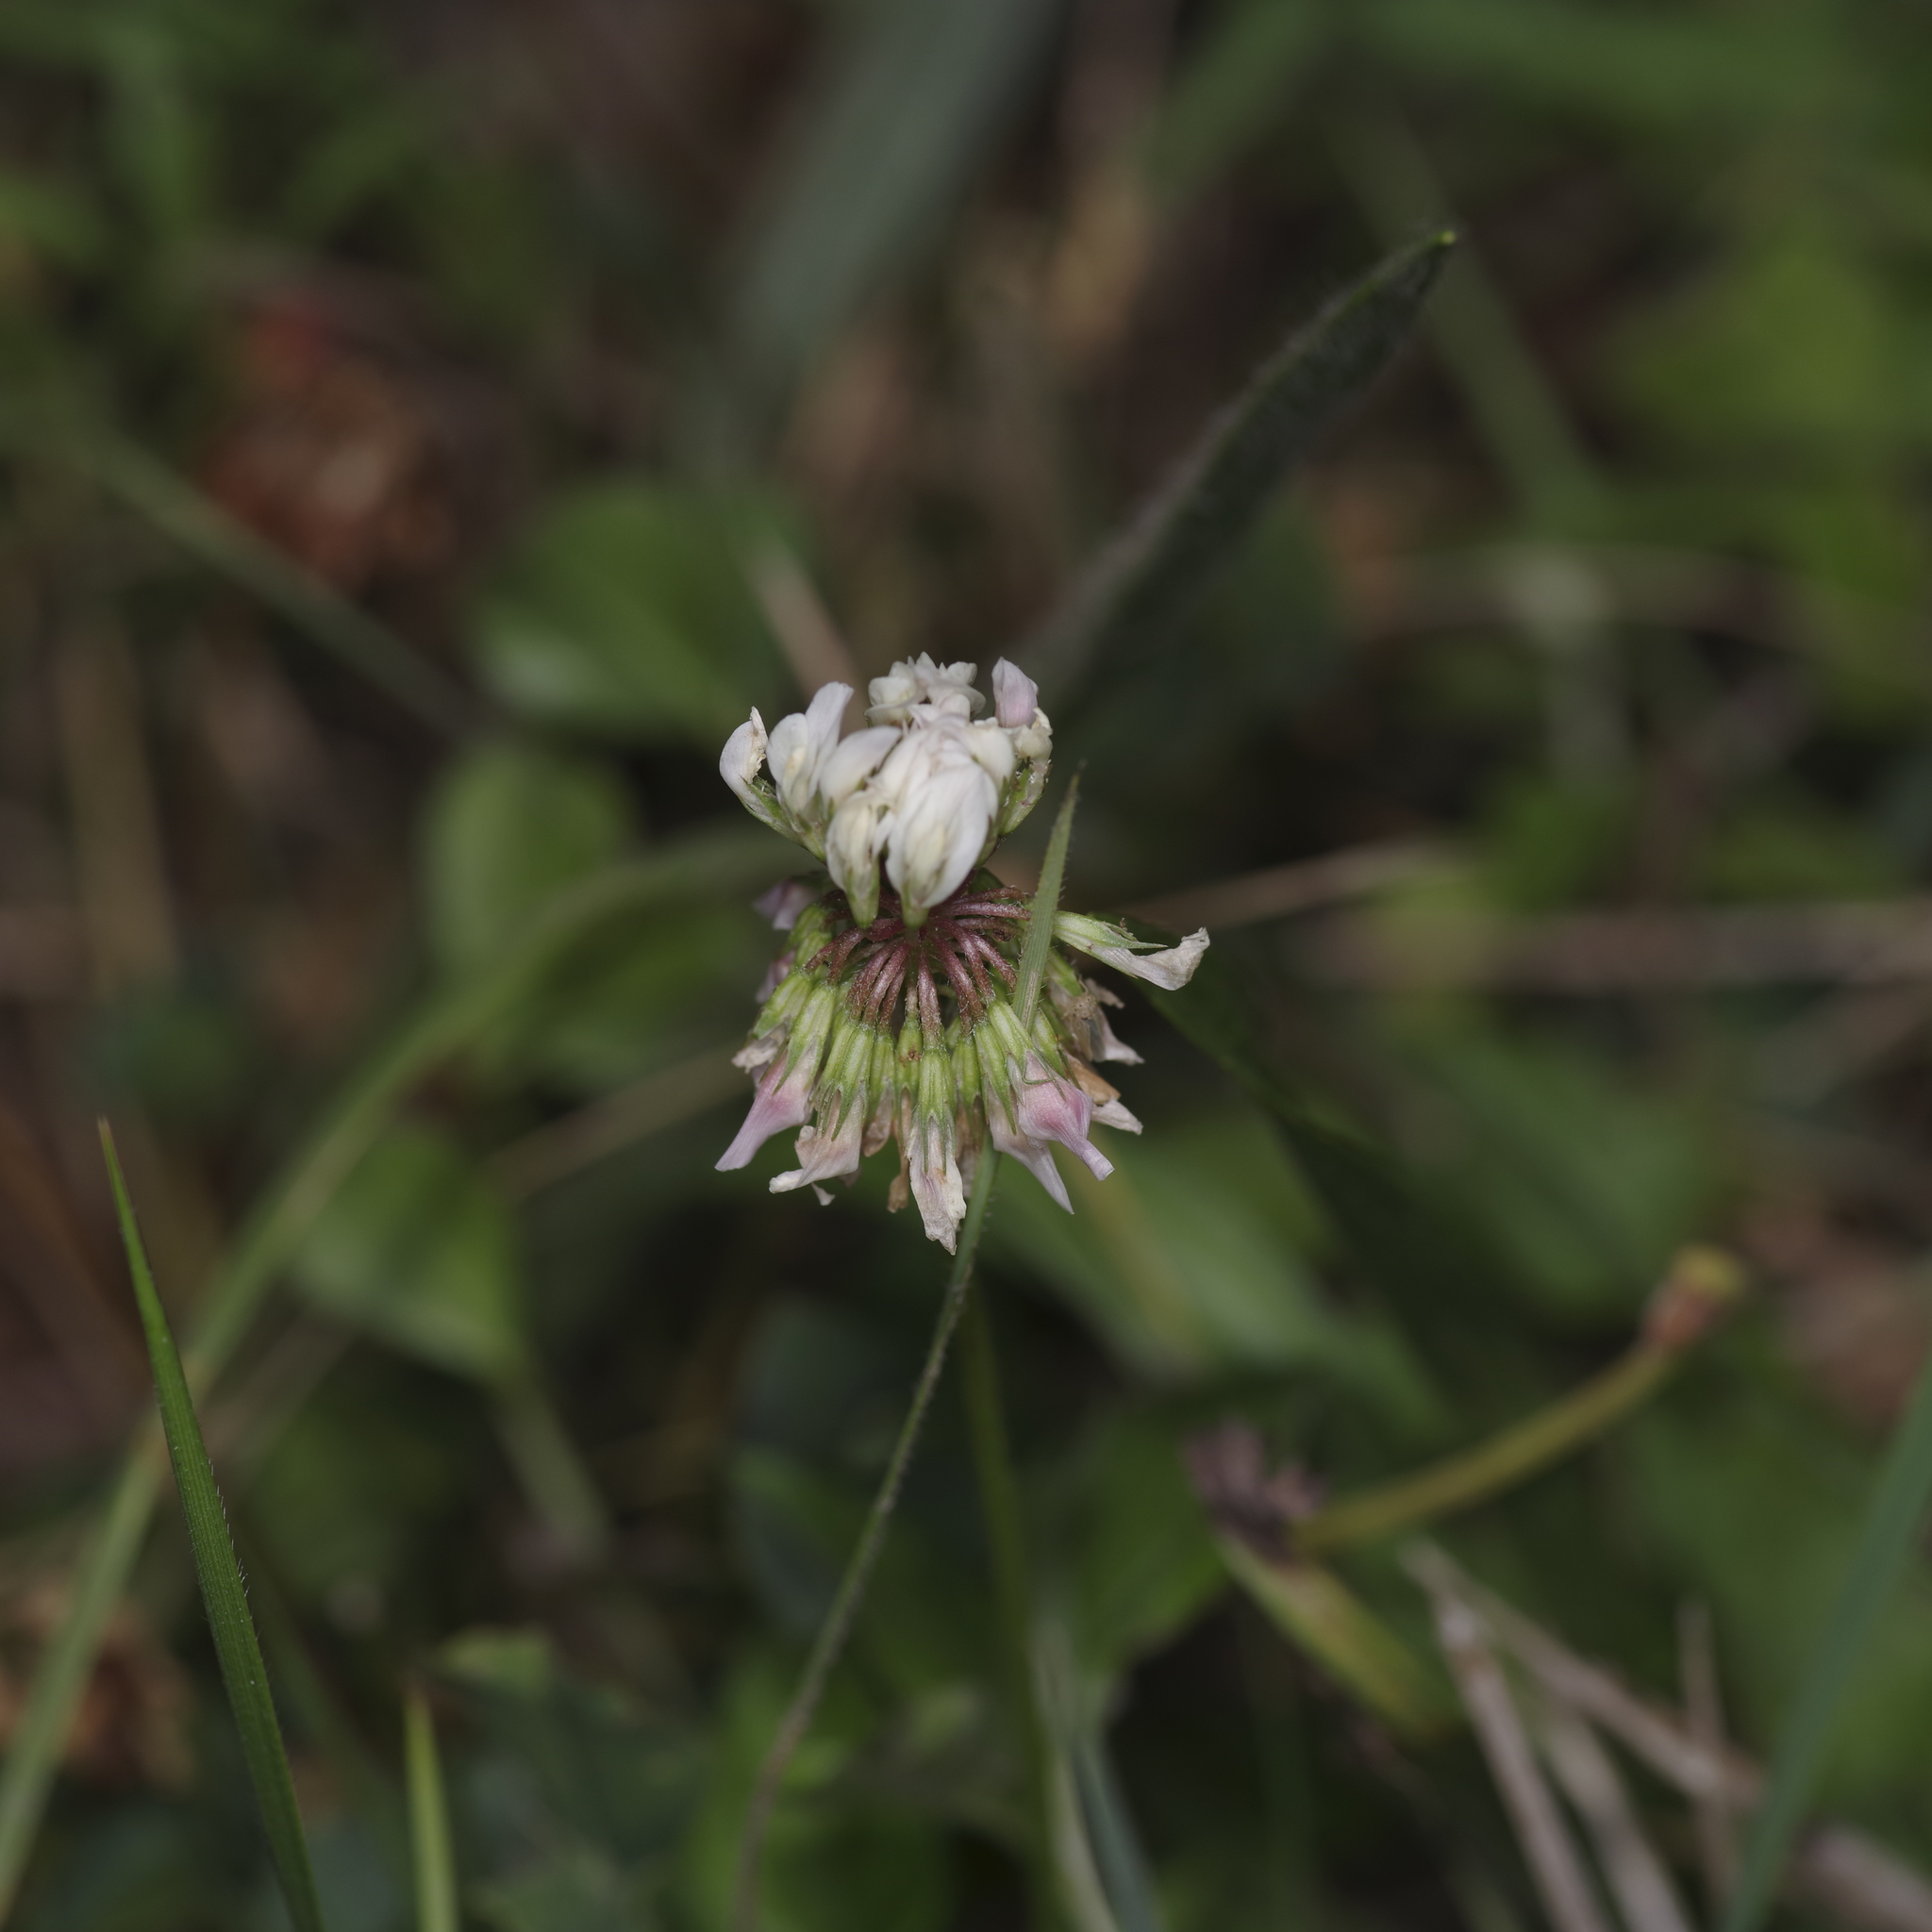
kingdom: Plantae
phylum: Tracheophyta
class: Magnoliopsida
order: Fabales
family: Fabaceae
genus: Trifolium
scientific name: Trifolium repens
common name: White clover
